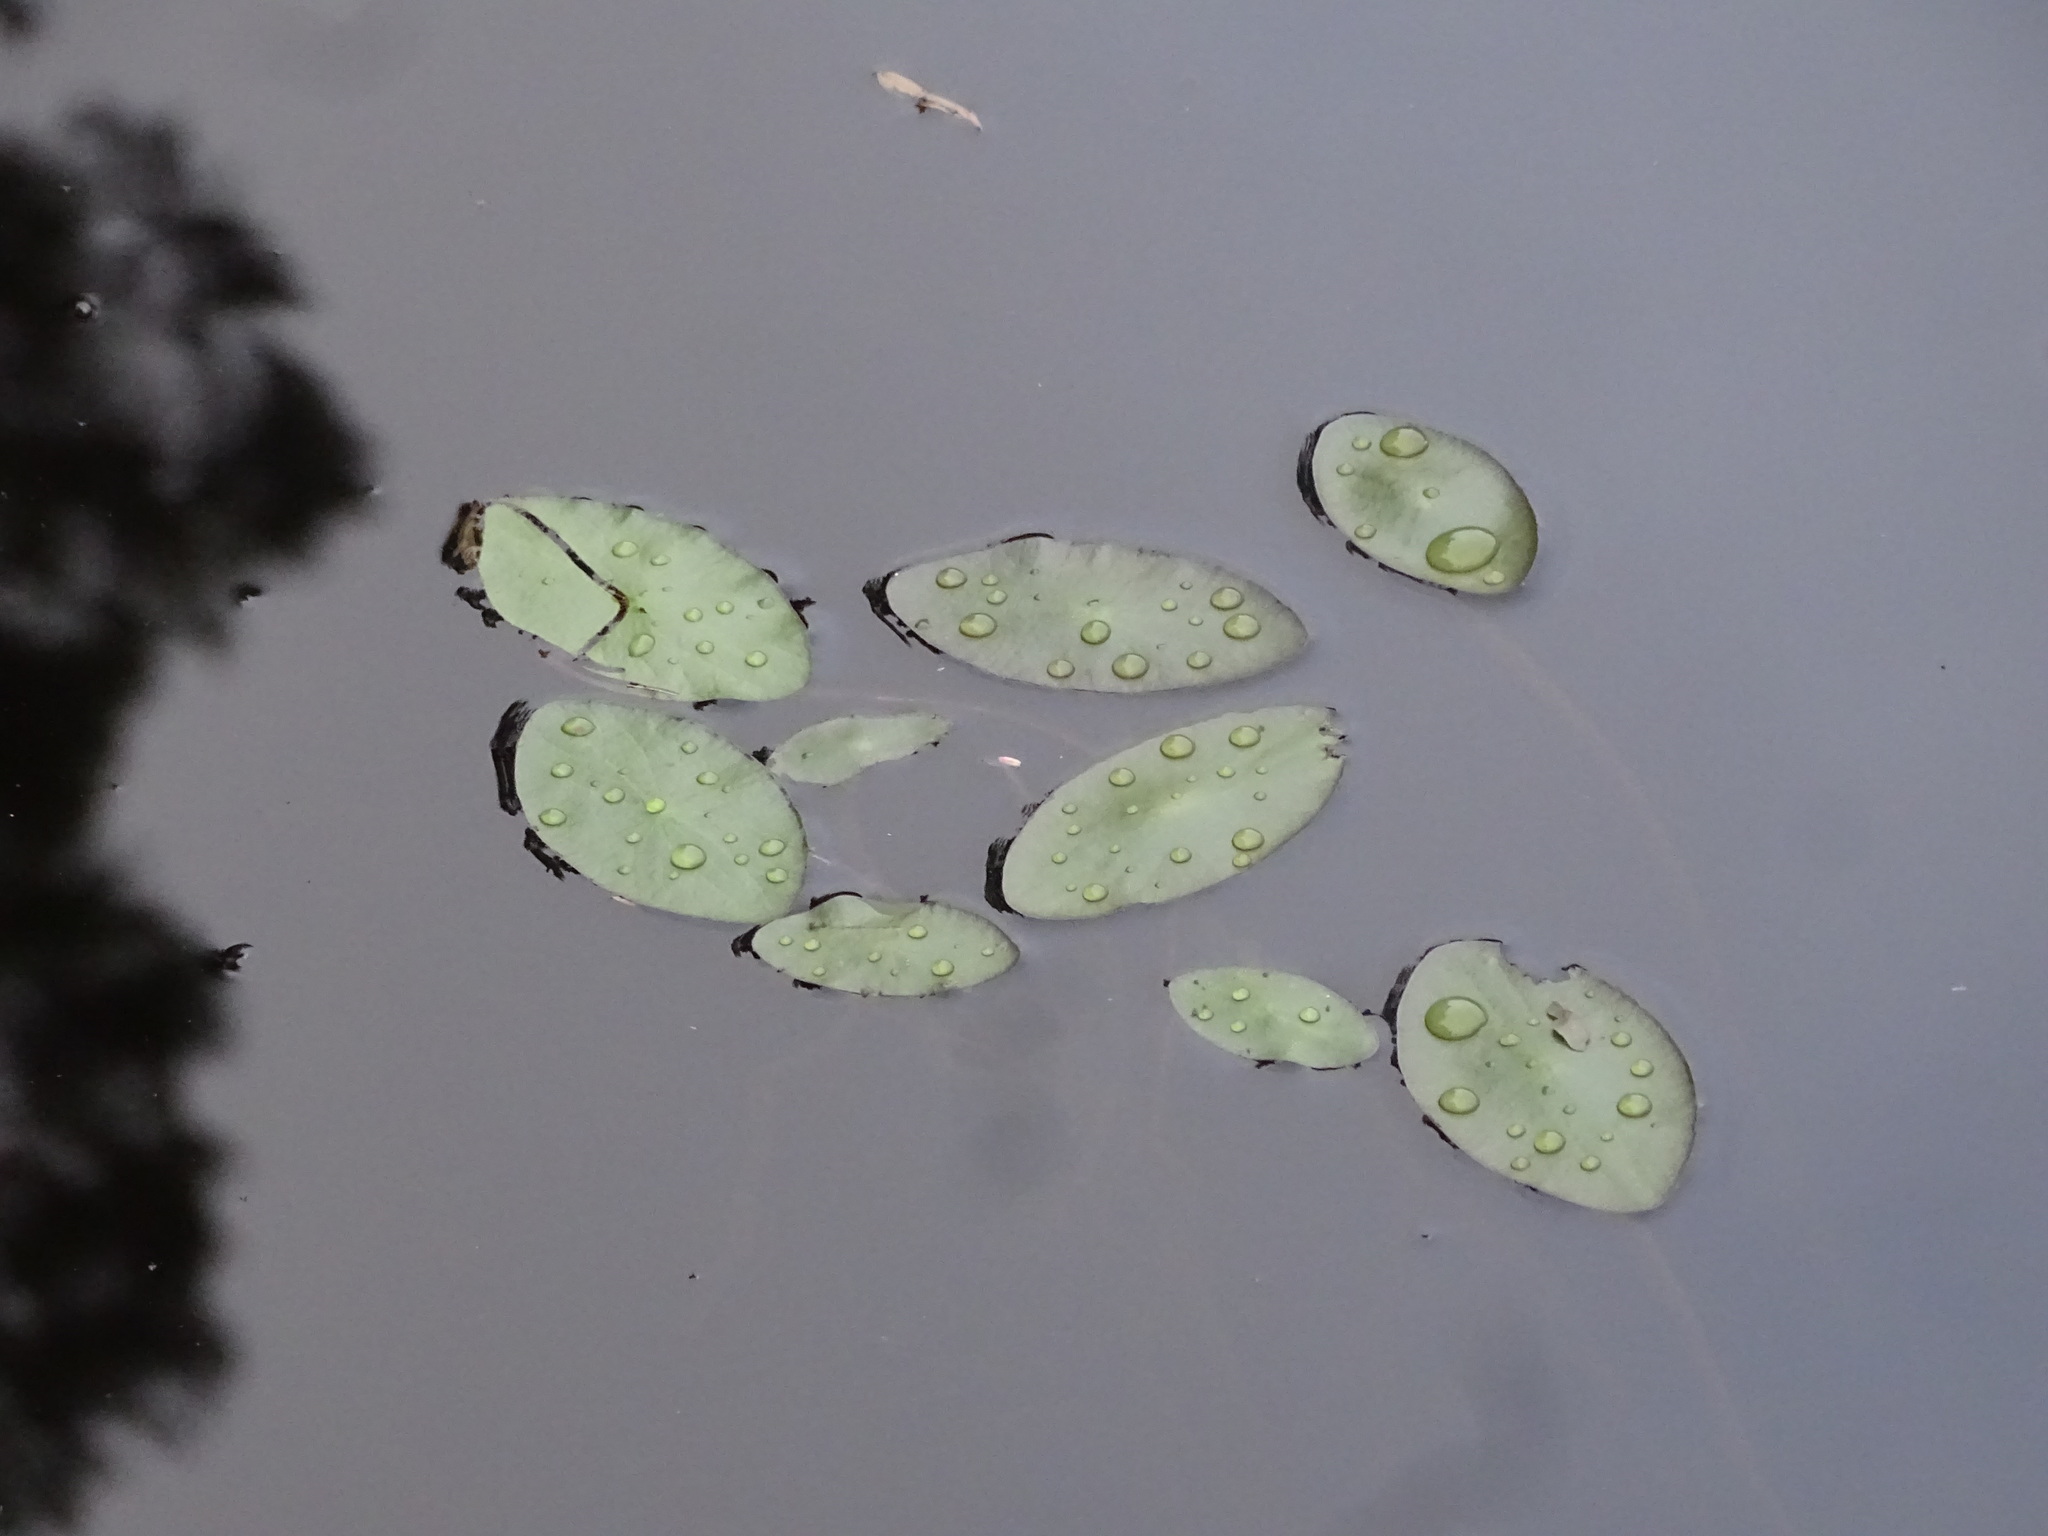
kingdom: Plantae
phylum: Tracheophyta
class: Magnoliopsida
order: Nymphaeales
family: Cabombaceae
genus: Brasenia
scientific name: Brasenia schreberi
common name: Water-shield
